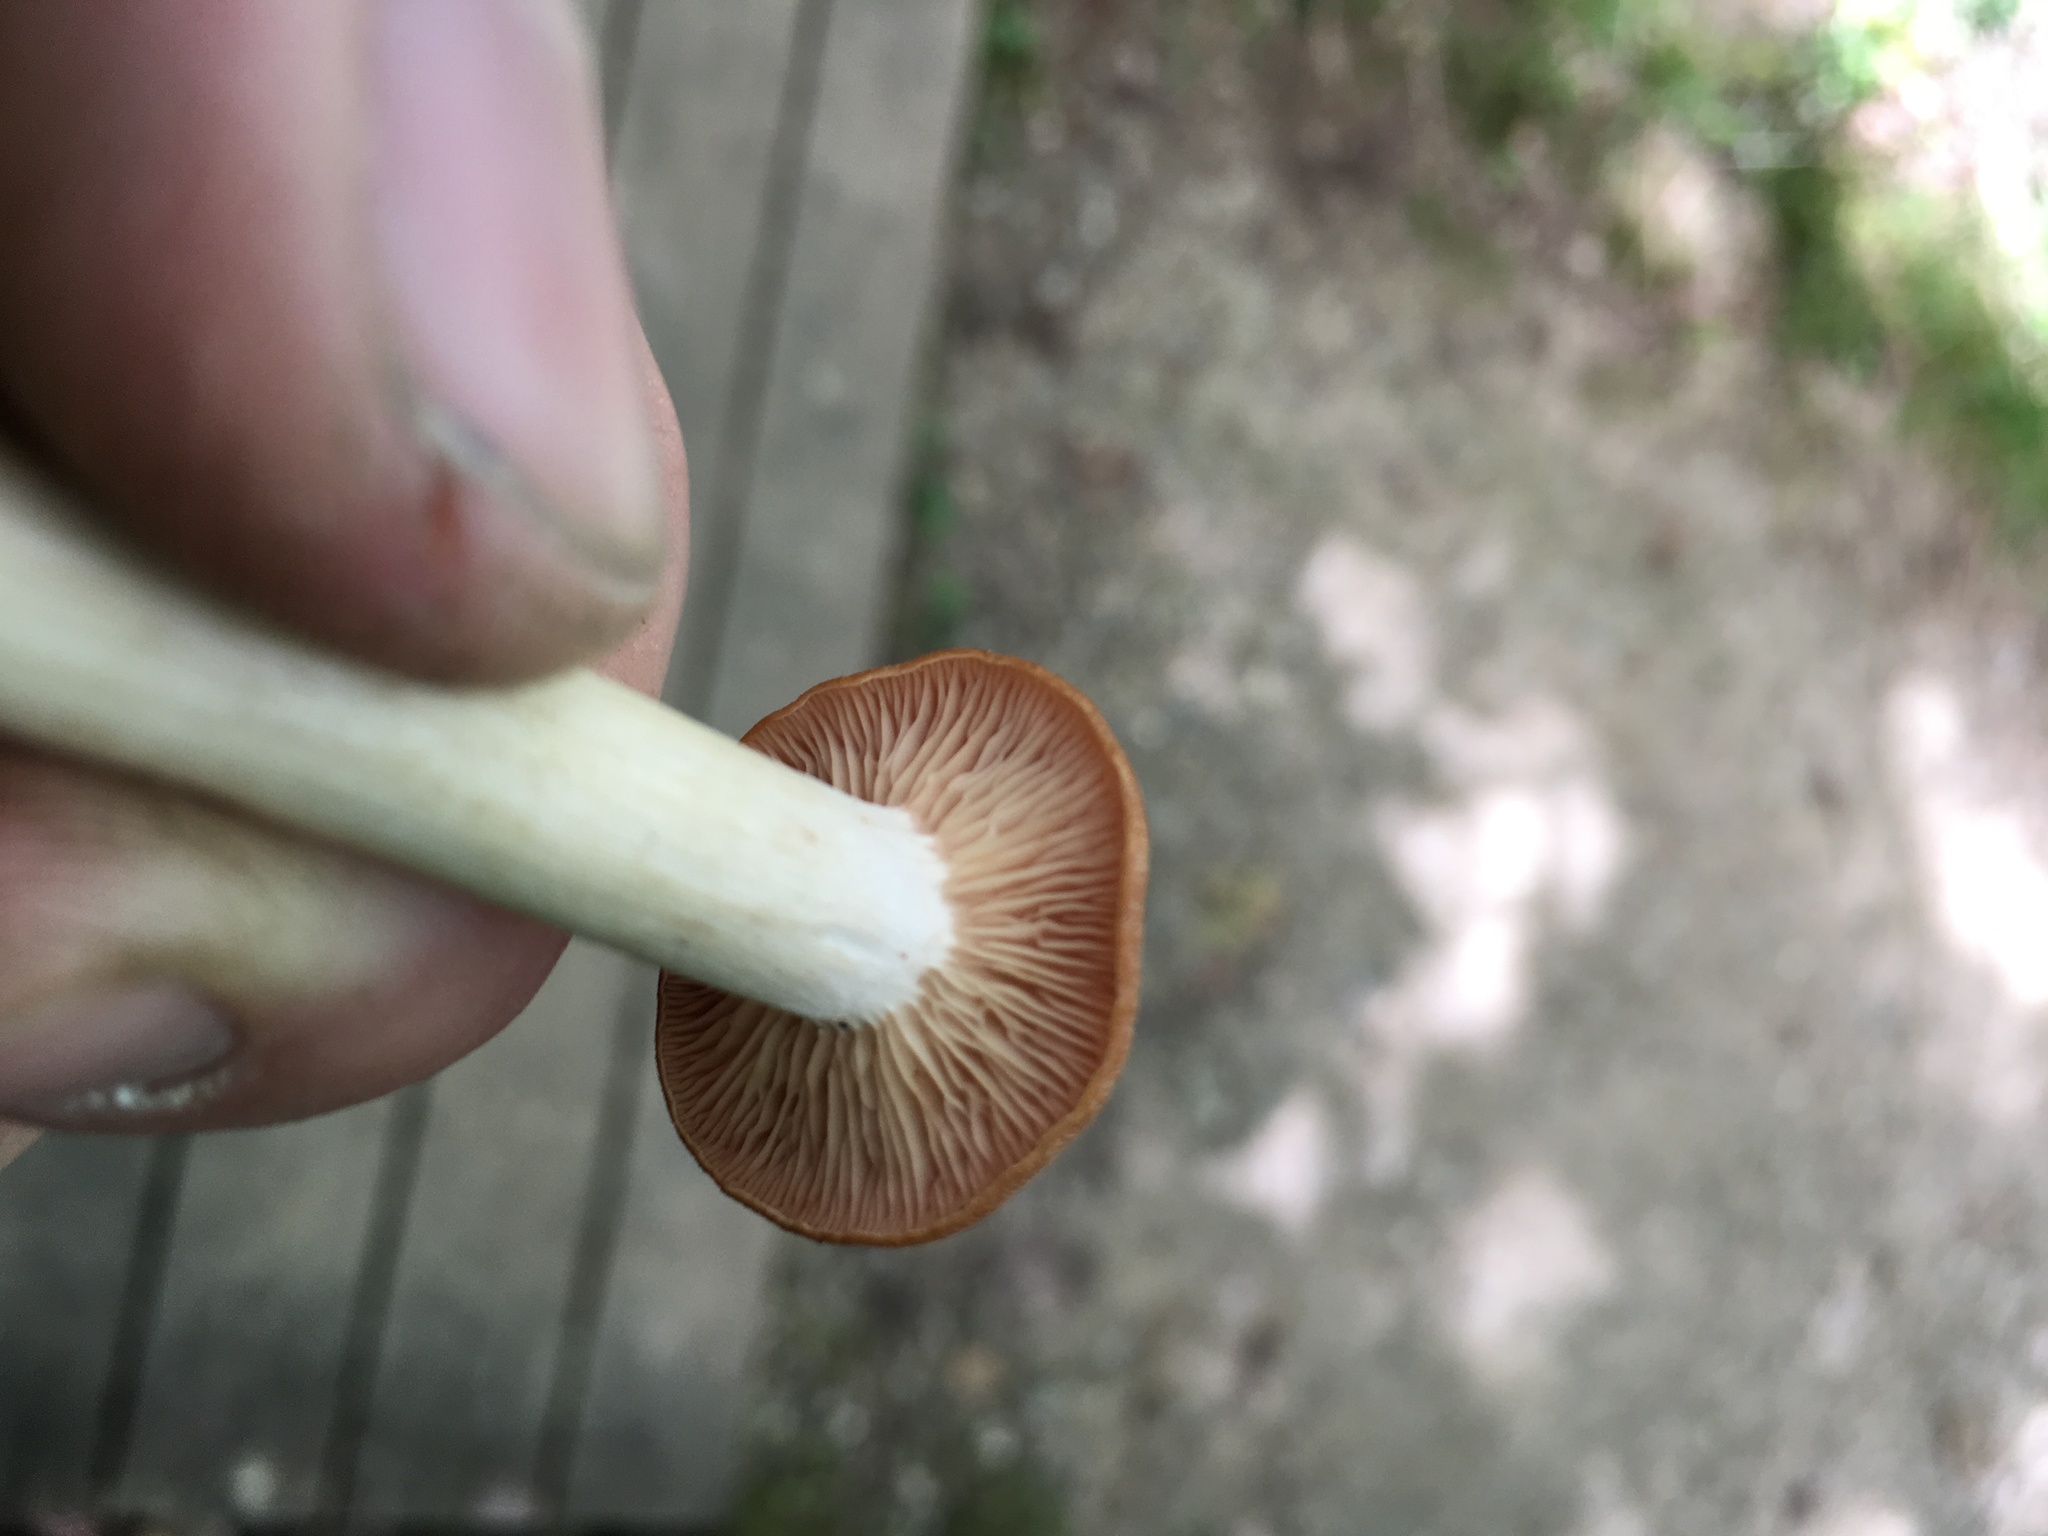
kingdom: Fungi
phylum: Basidiomycota
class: Agaricomycetes
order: Agaricales
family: Physalacriaceae
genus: Desarmillaria
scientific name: Desarmillaria caespitosa
